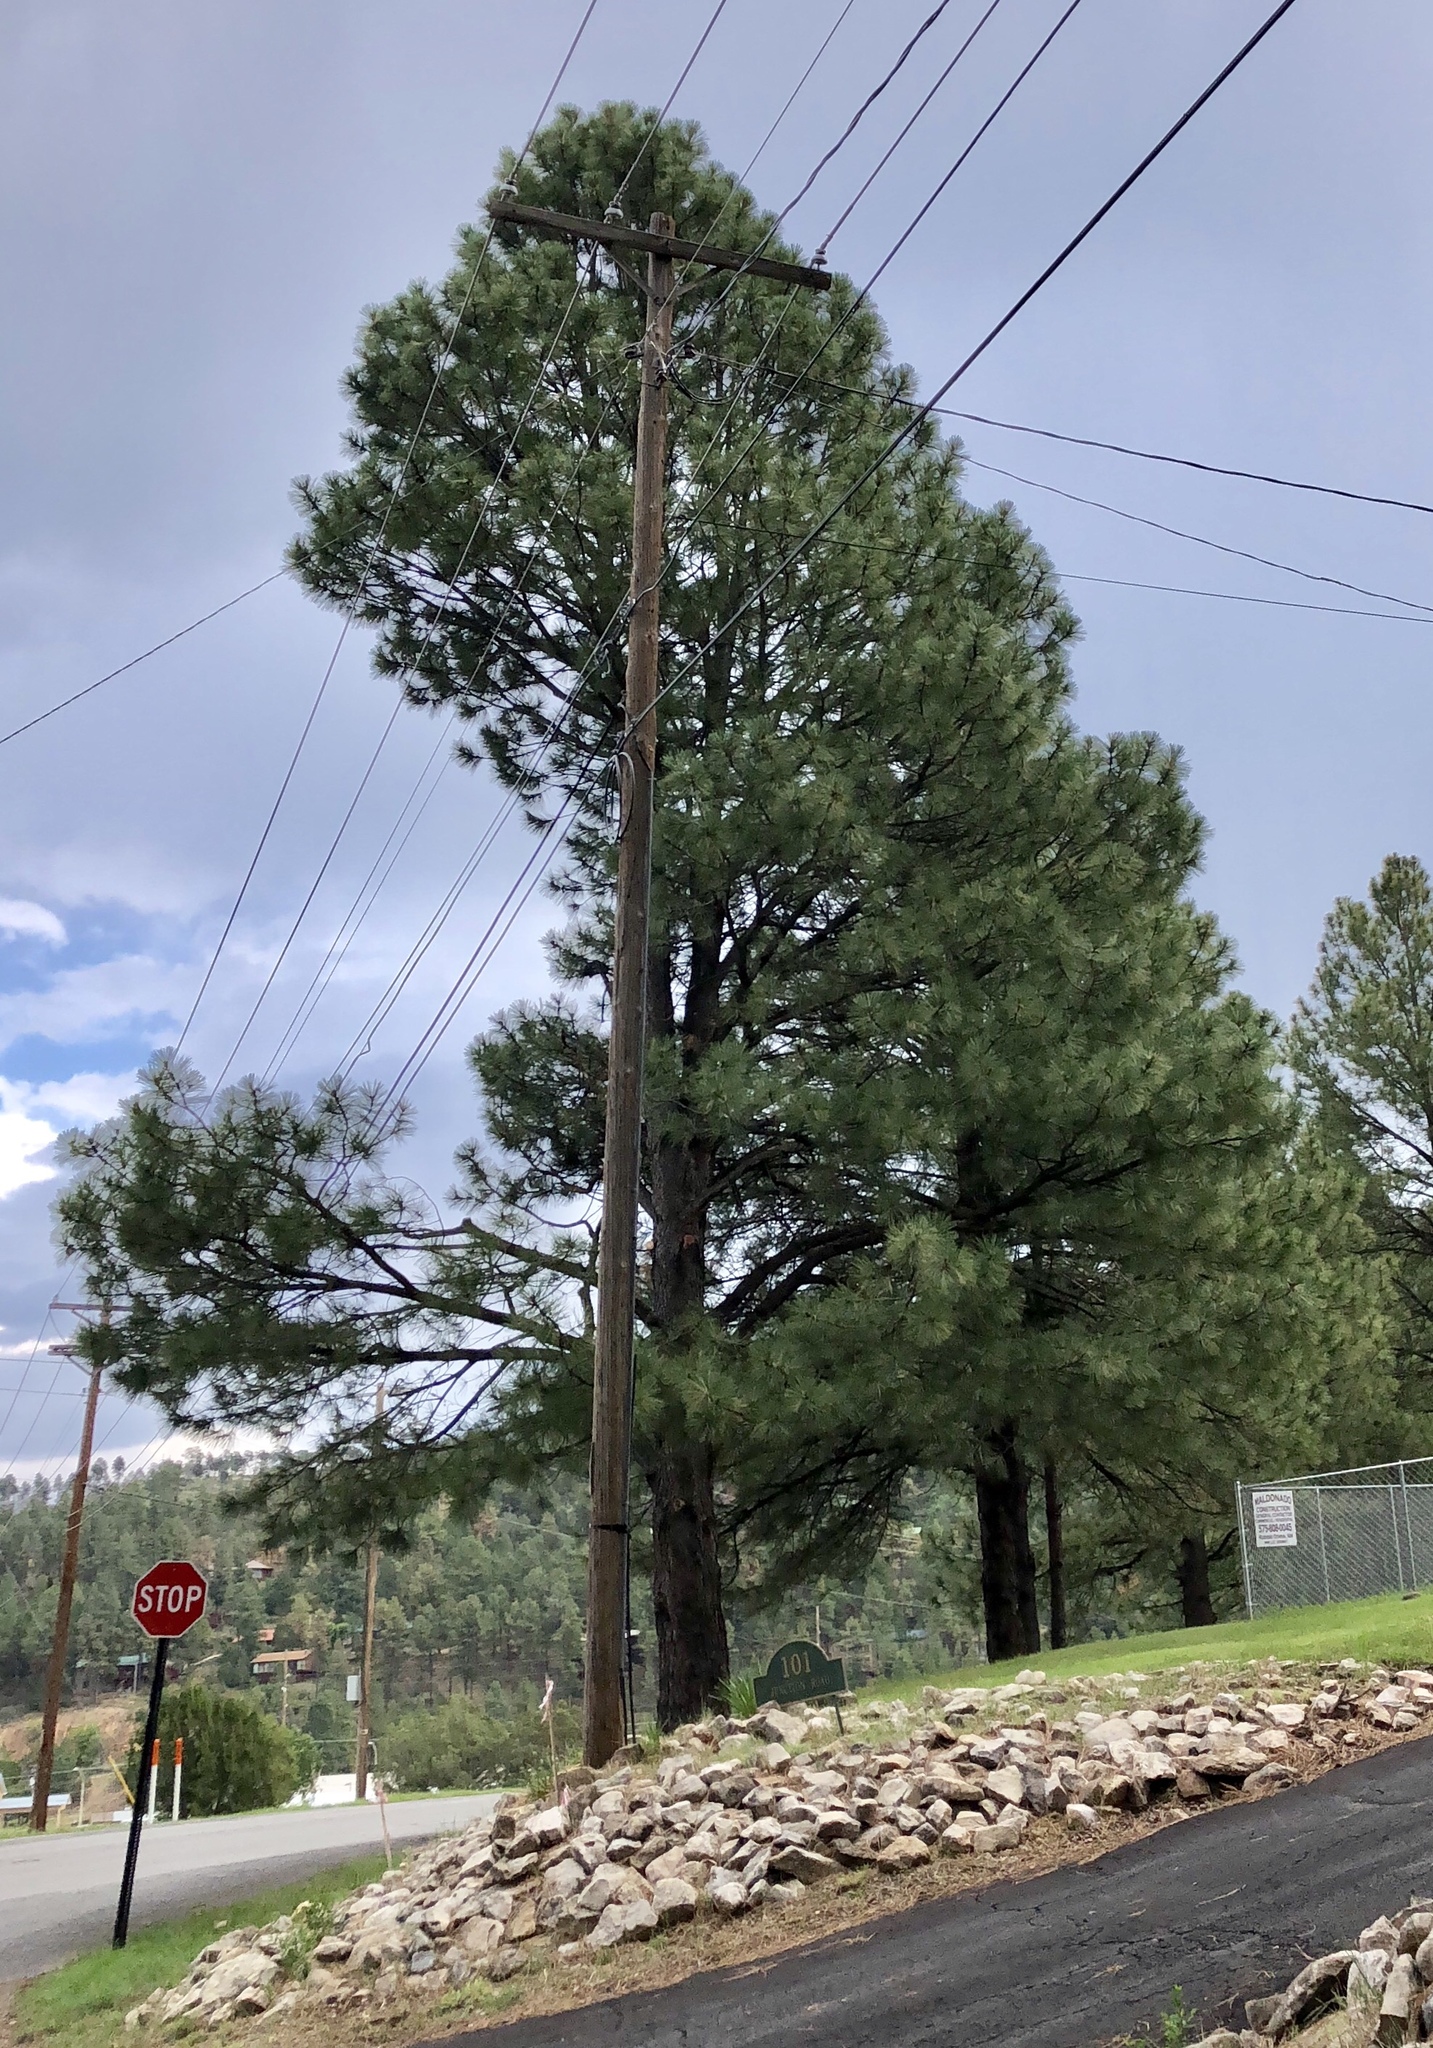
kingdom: Plantae
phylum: Tracheophyta
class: Pinopsida
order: Pinales
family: Pinaceae
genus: Pinus
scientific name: Pinus ponderosa
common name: Western yellow-pine
